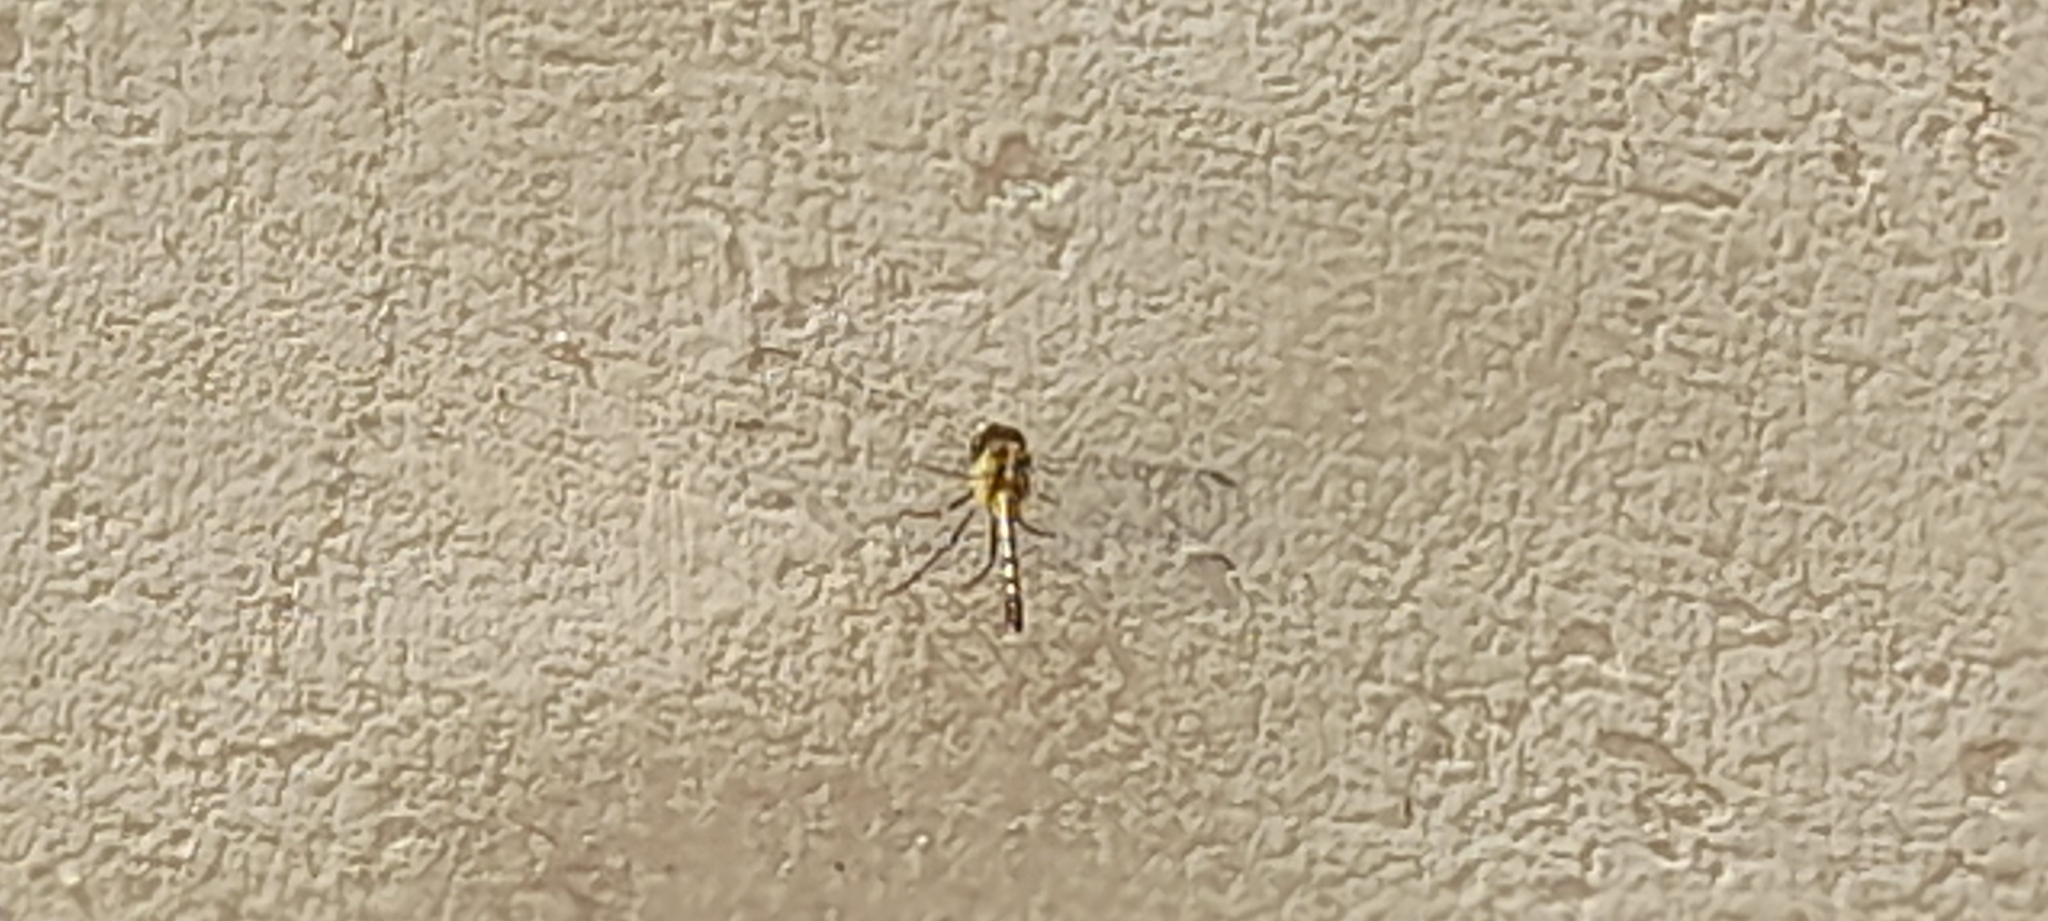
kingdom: Animalia
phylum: Arthropoda
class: Insecta
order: Odonata
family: Libellulidae
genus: Diplacodes
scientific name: Diplacodes trivialis
